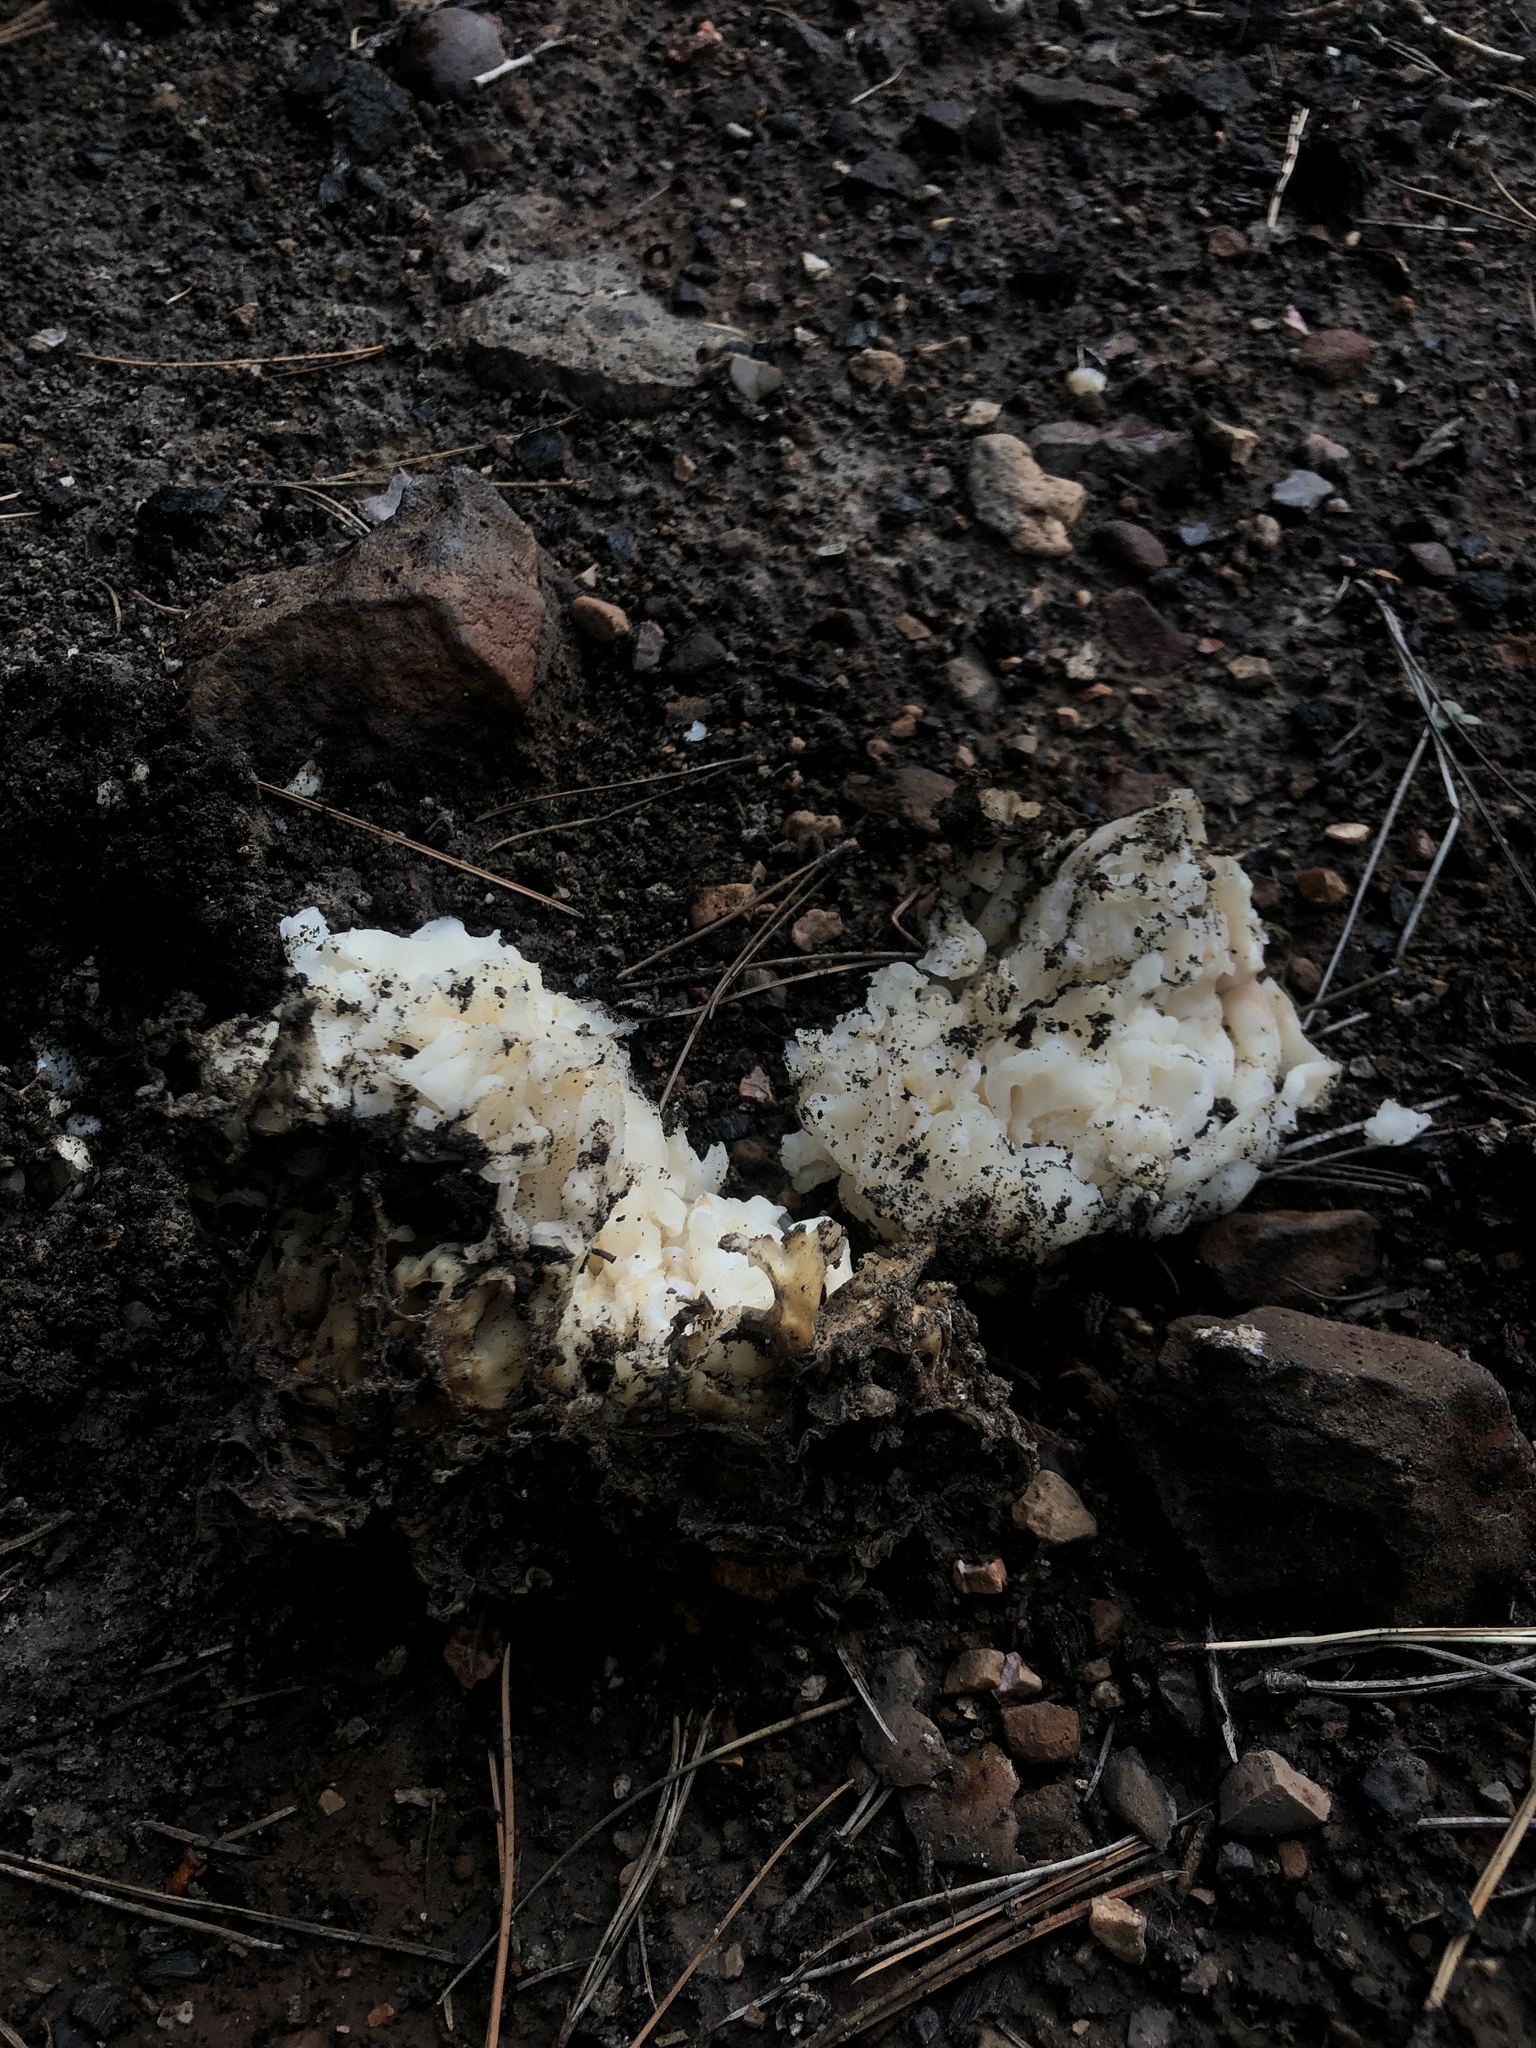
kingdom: Fungi
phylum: Ascomycota
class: Pezizomycetes
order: Pezizales
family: Pezizaceae
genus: Daleomyces
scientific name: Daleomyces phillipsii
